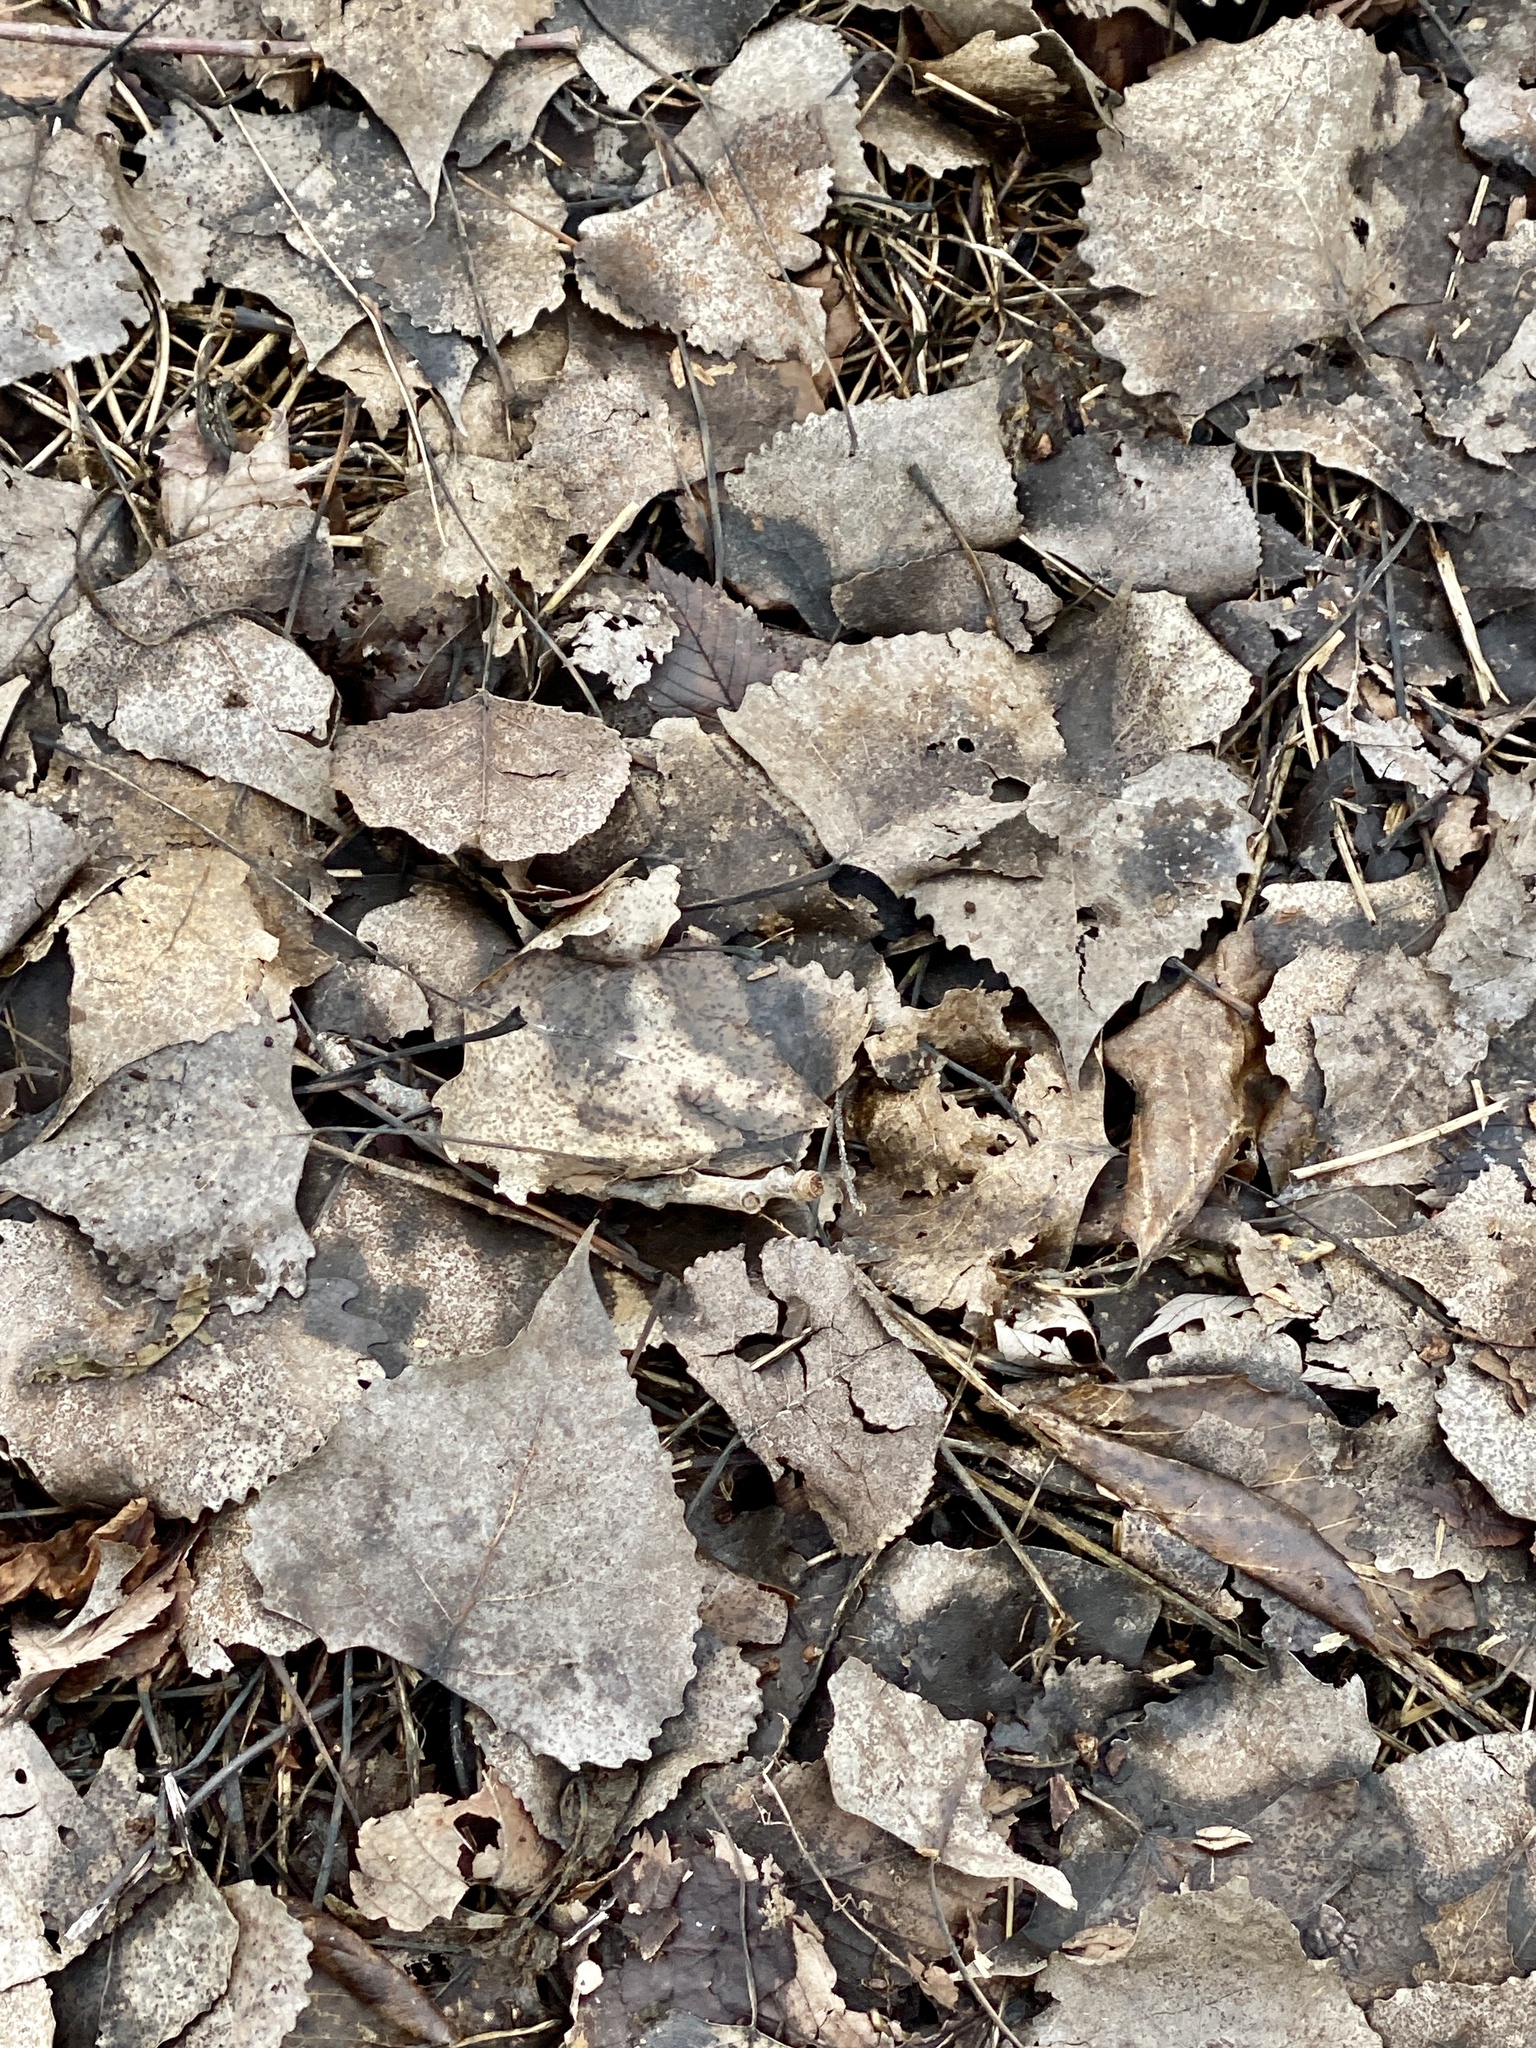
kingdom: Plantae
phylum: Tracheophyta
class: Magnoliopsida
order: Malpighiales
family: Salicaceae
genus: Populus
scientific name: Populus deltoides
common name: Eastern cottonwood
